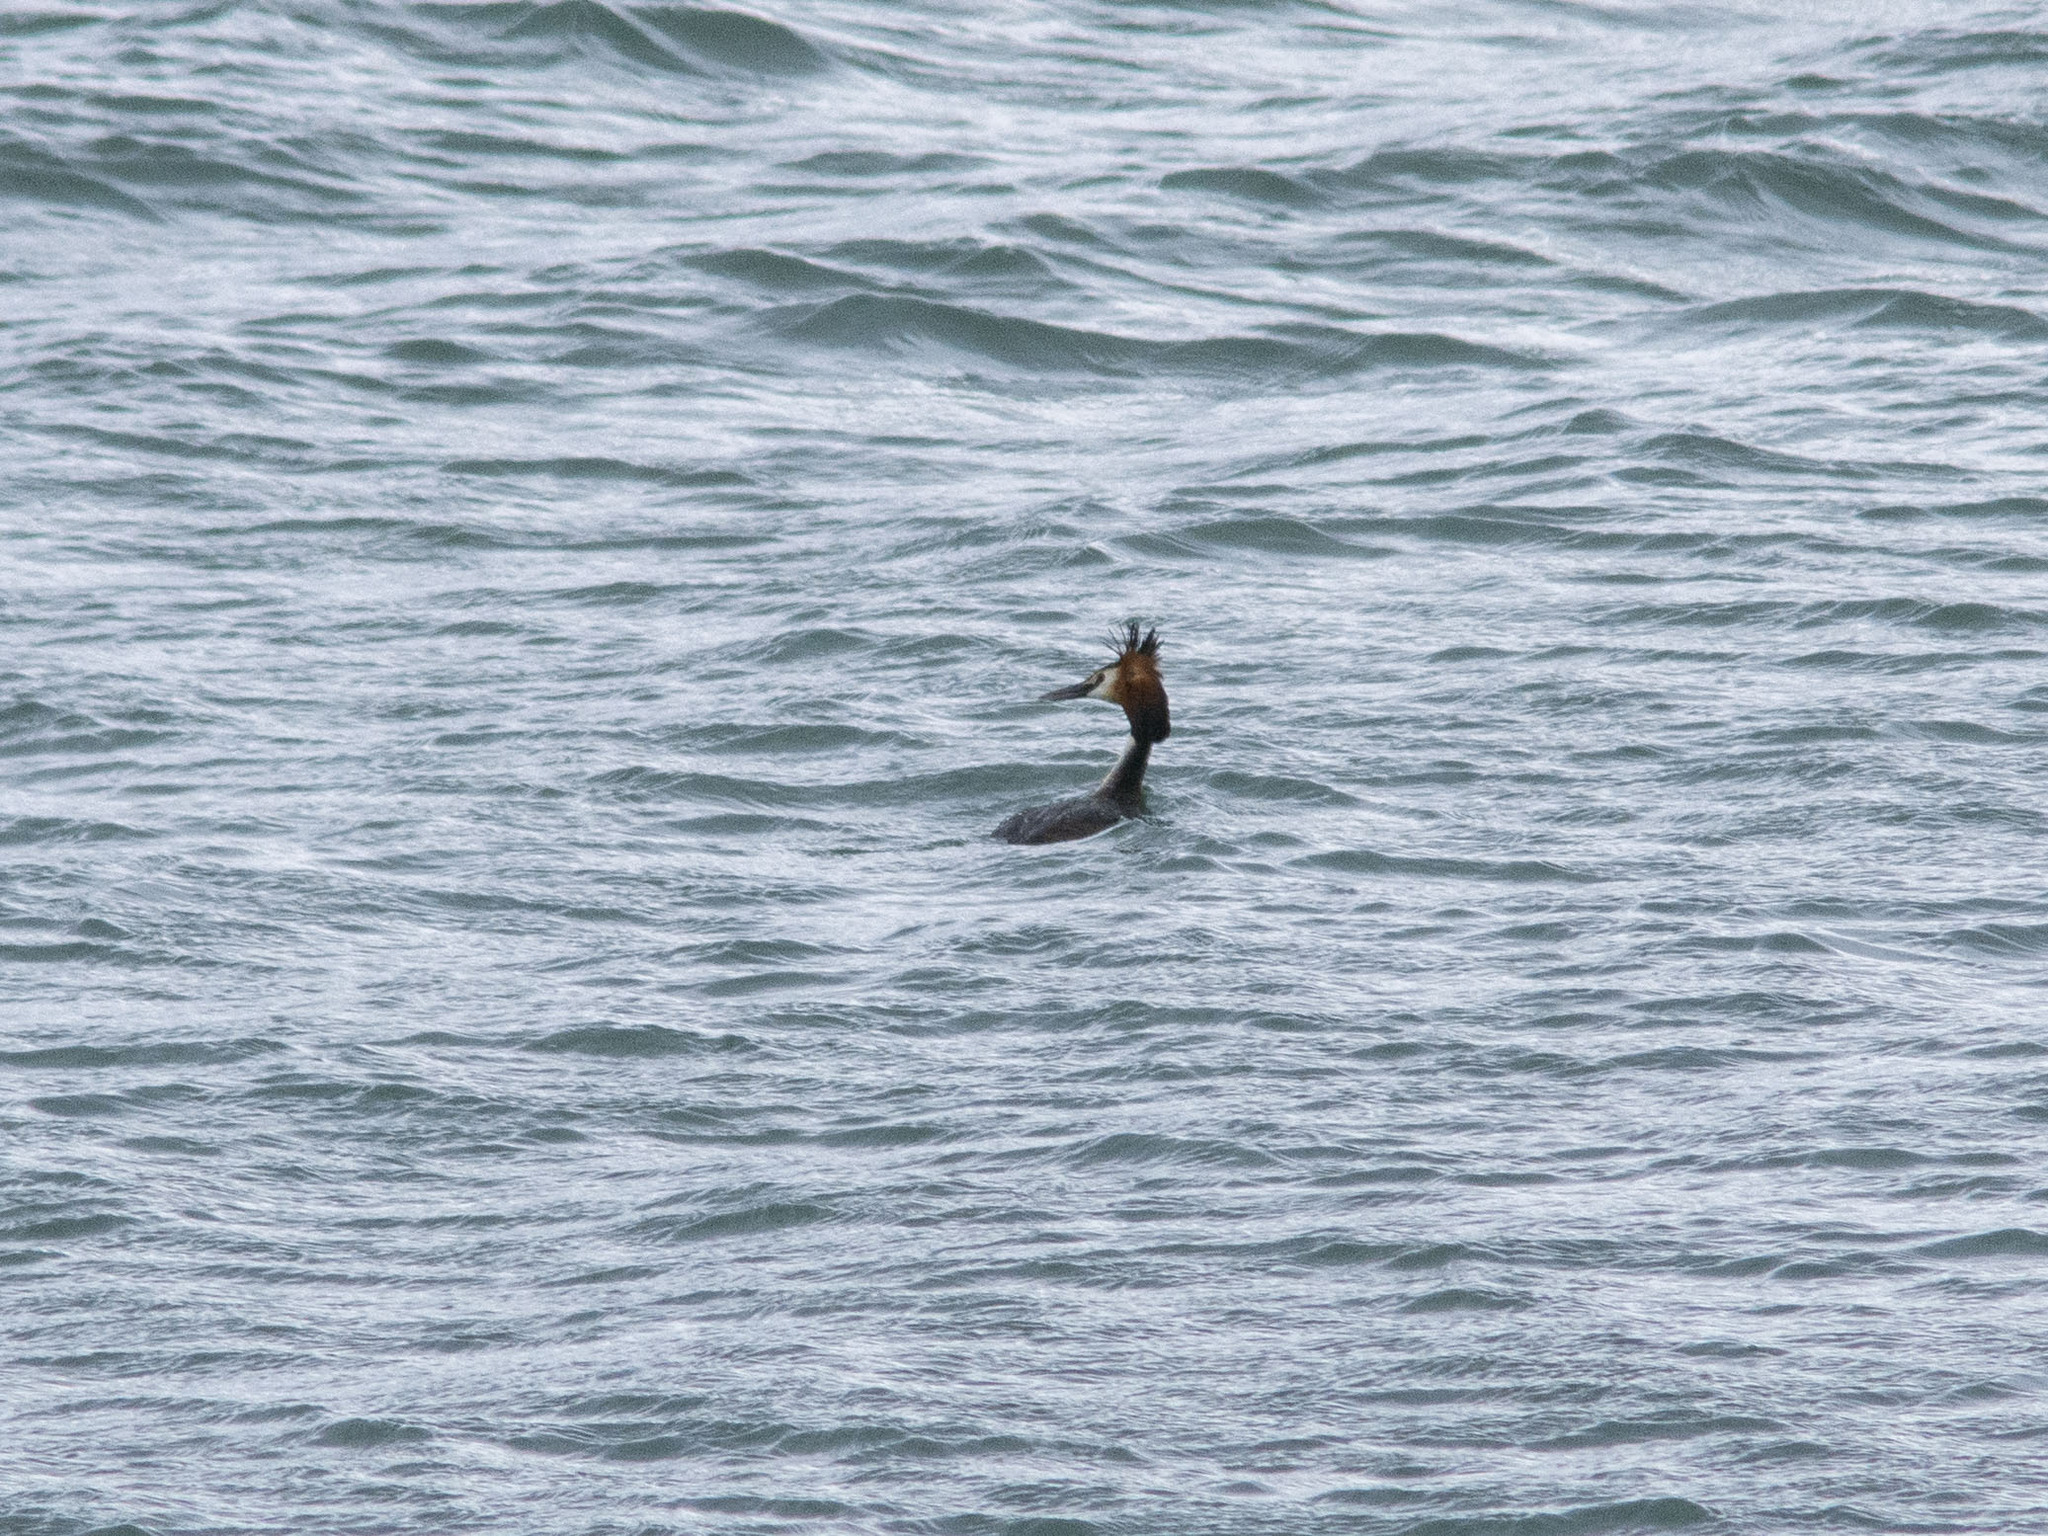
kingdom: Animalia
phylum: Chordata
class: Aves
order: Podicipediformes
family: Podicipedidae
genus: Podiceps
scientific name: Podiceps cristatus
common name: Great crested grebe
